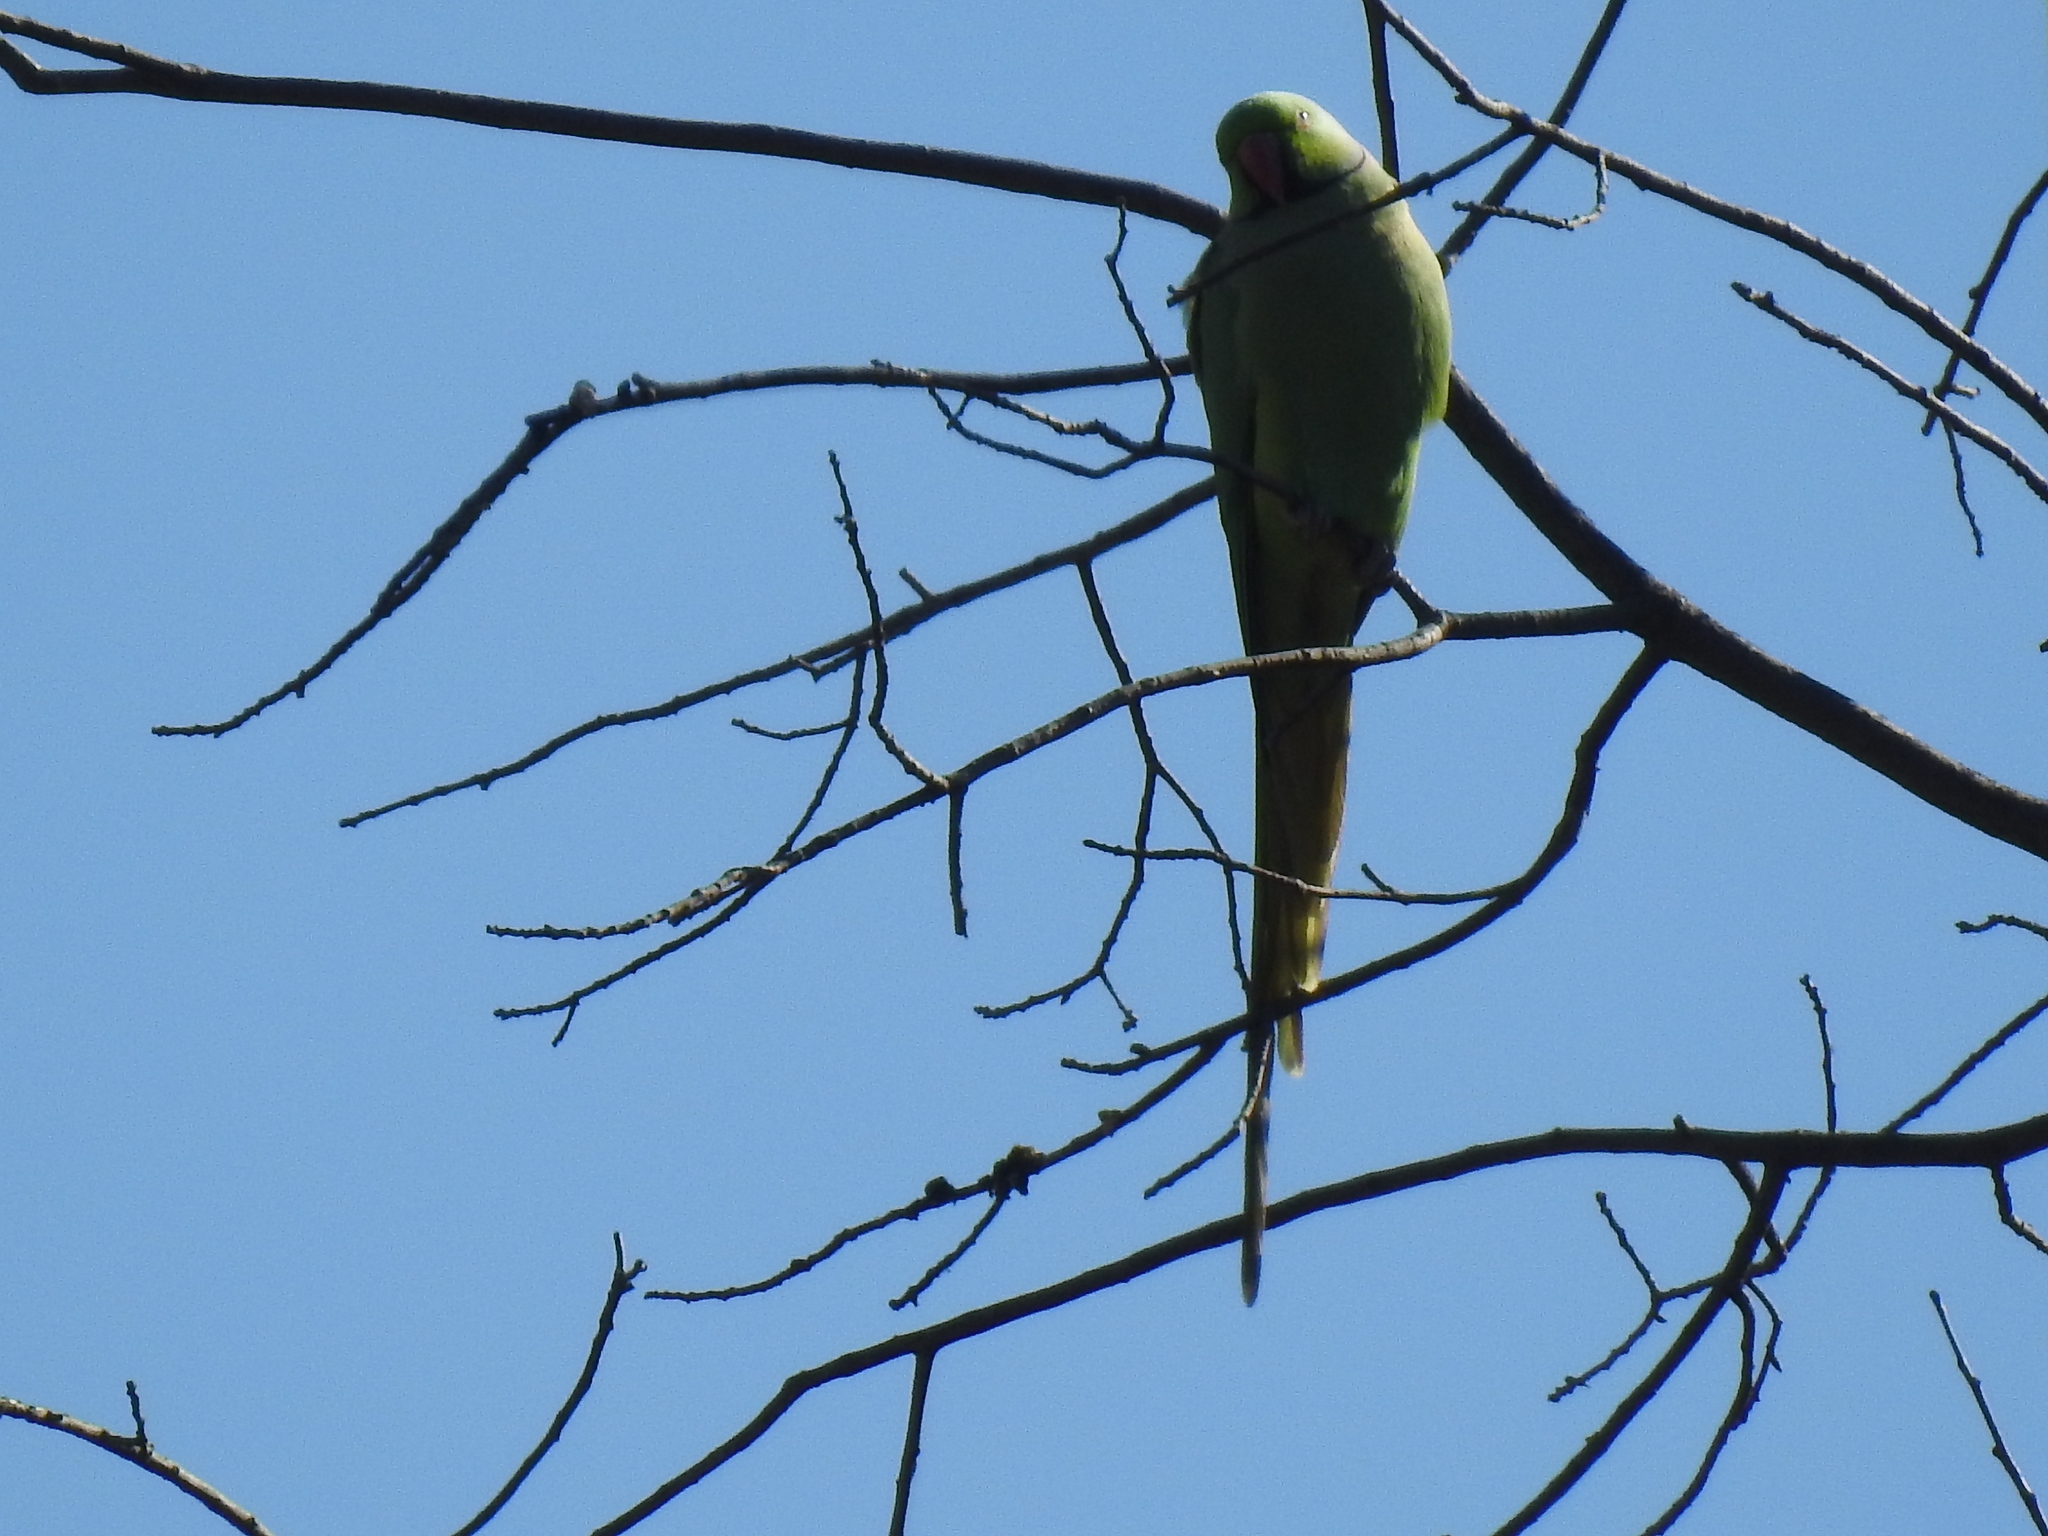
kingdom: Animalia
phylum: Chordata
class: Aves
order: Psittaciformes
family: Psittacidae
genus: Psittacula
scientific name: Psittacula krameri
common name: Rose-ringed parakeet
